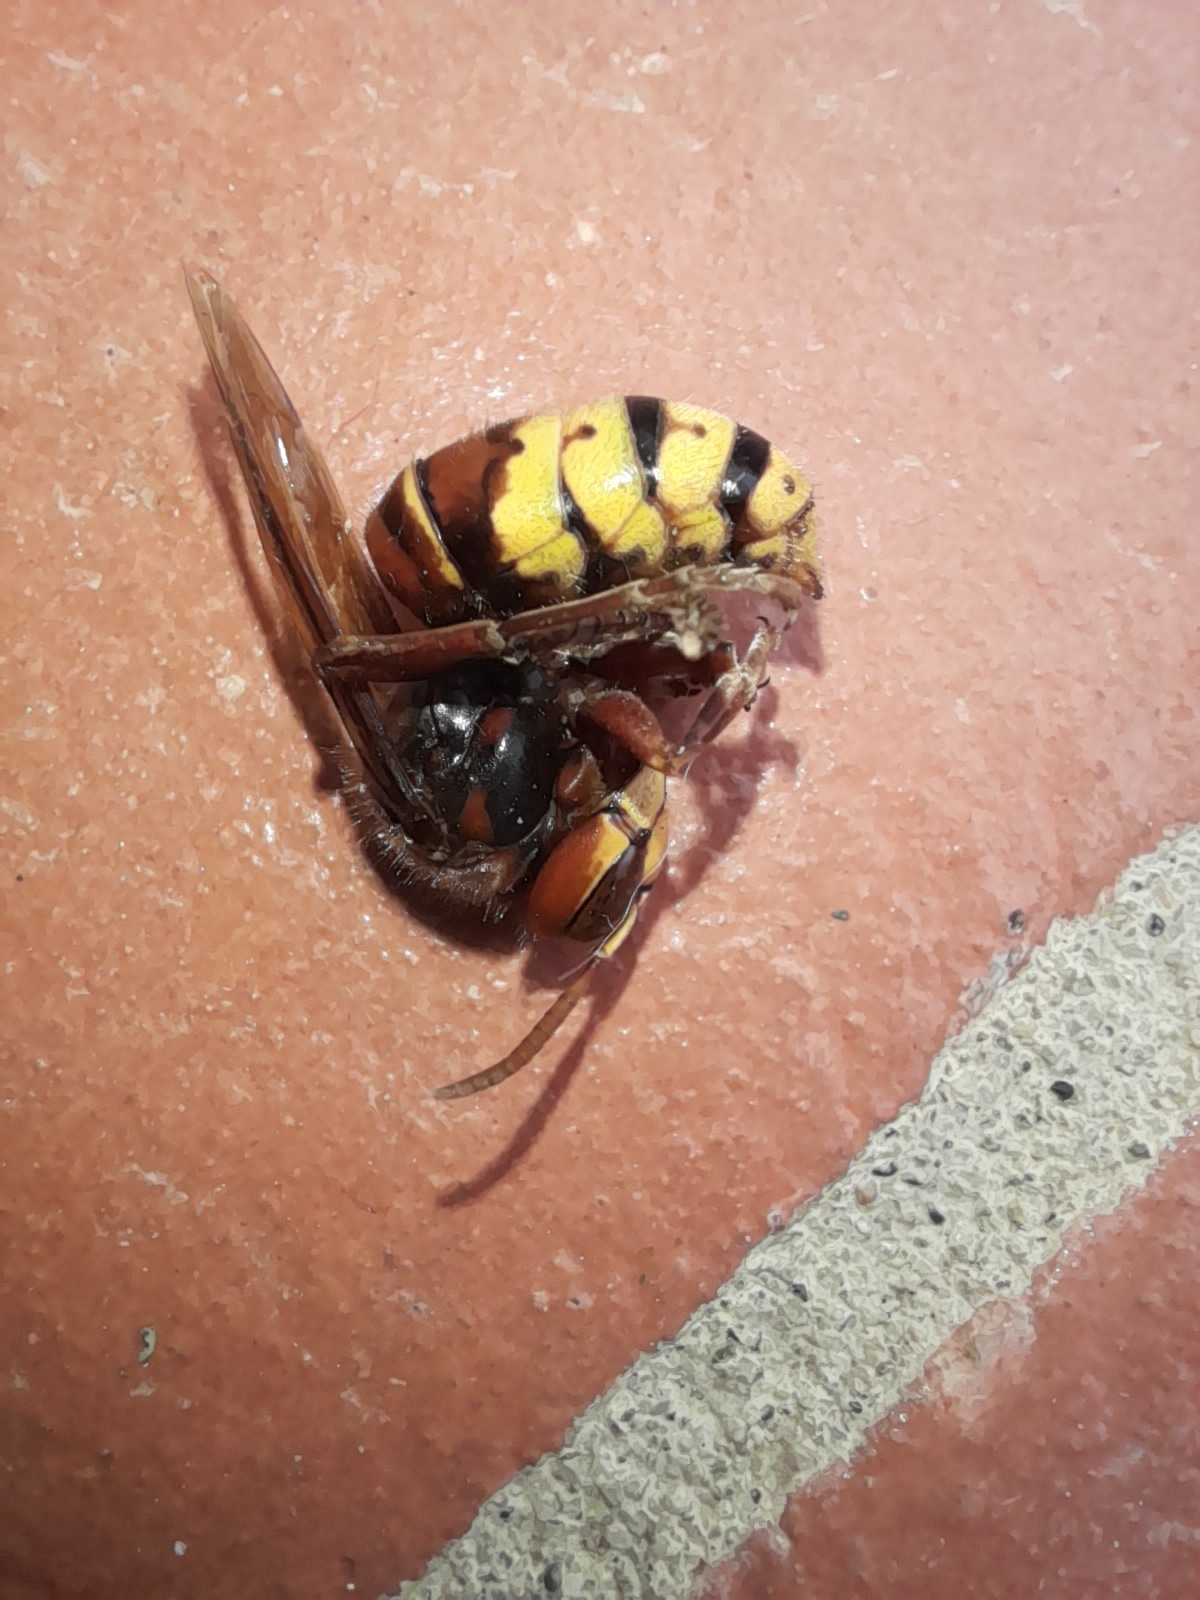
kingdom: Animalia
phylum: Arthropoda
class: Insecta
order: Hymenoptera
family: Vespidae
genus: Vespa
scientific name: Vespa crabro
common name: Hornet
